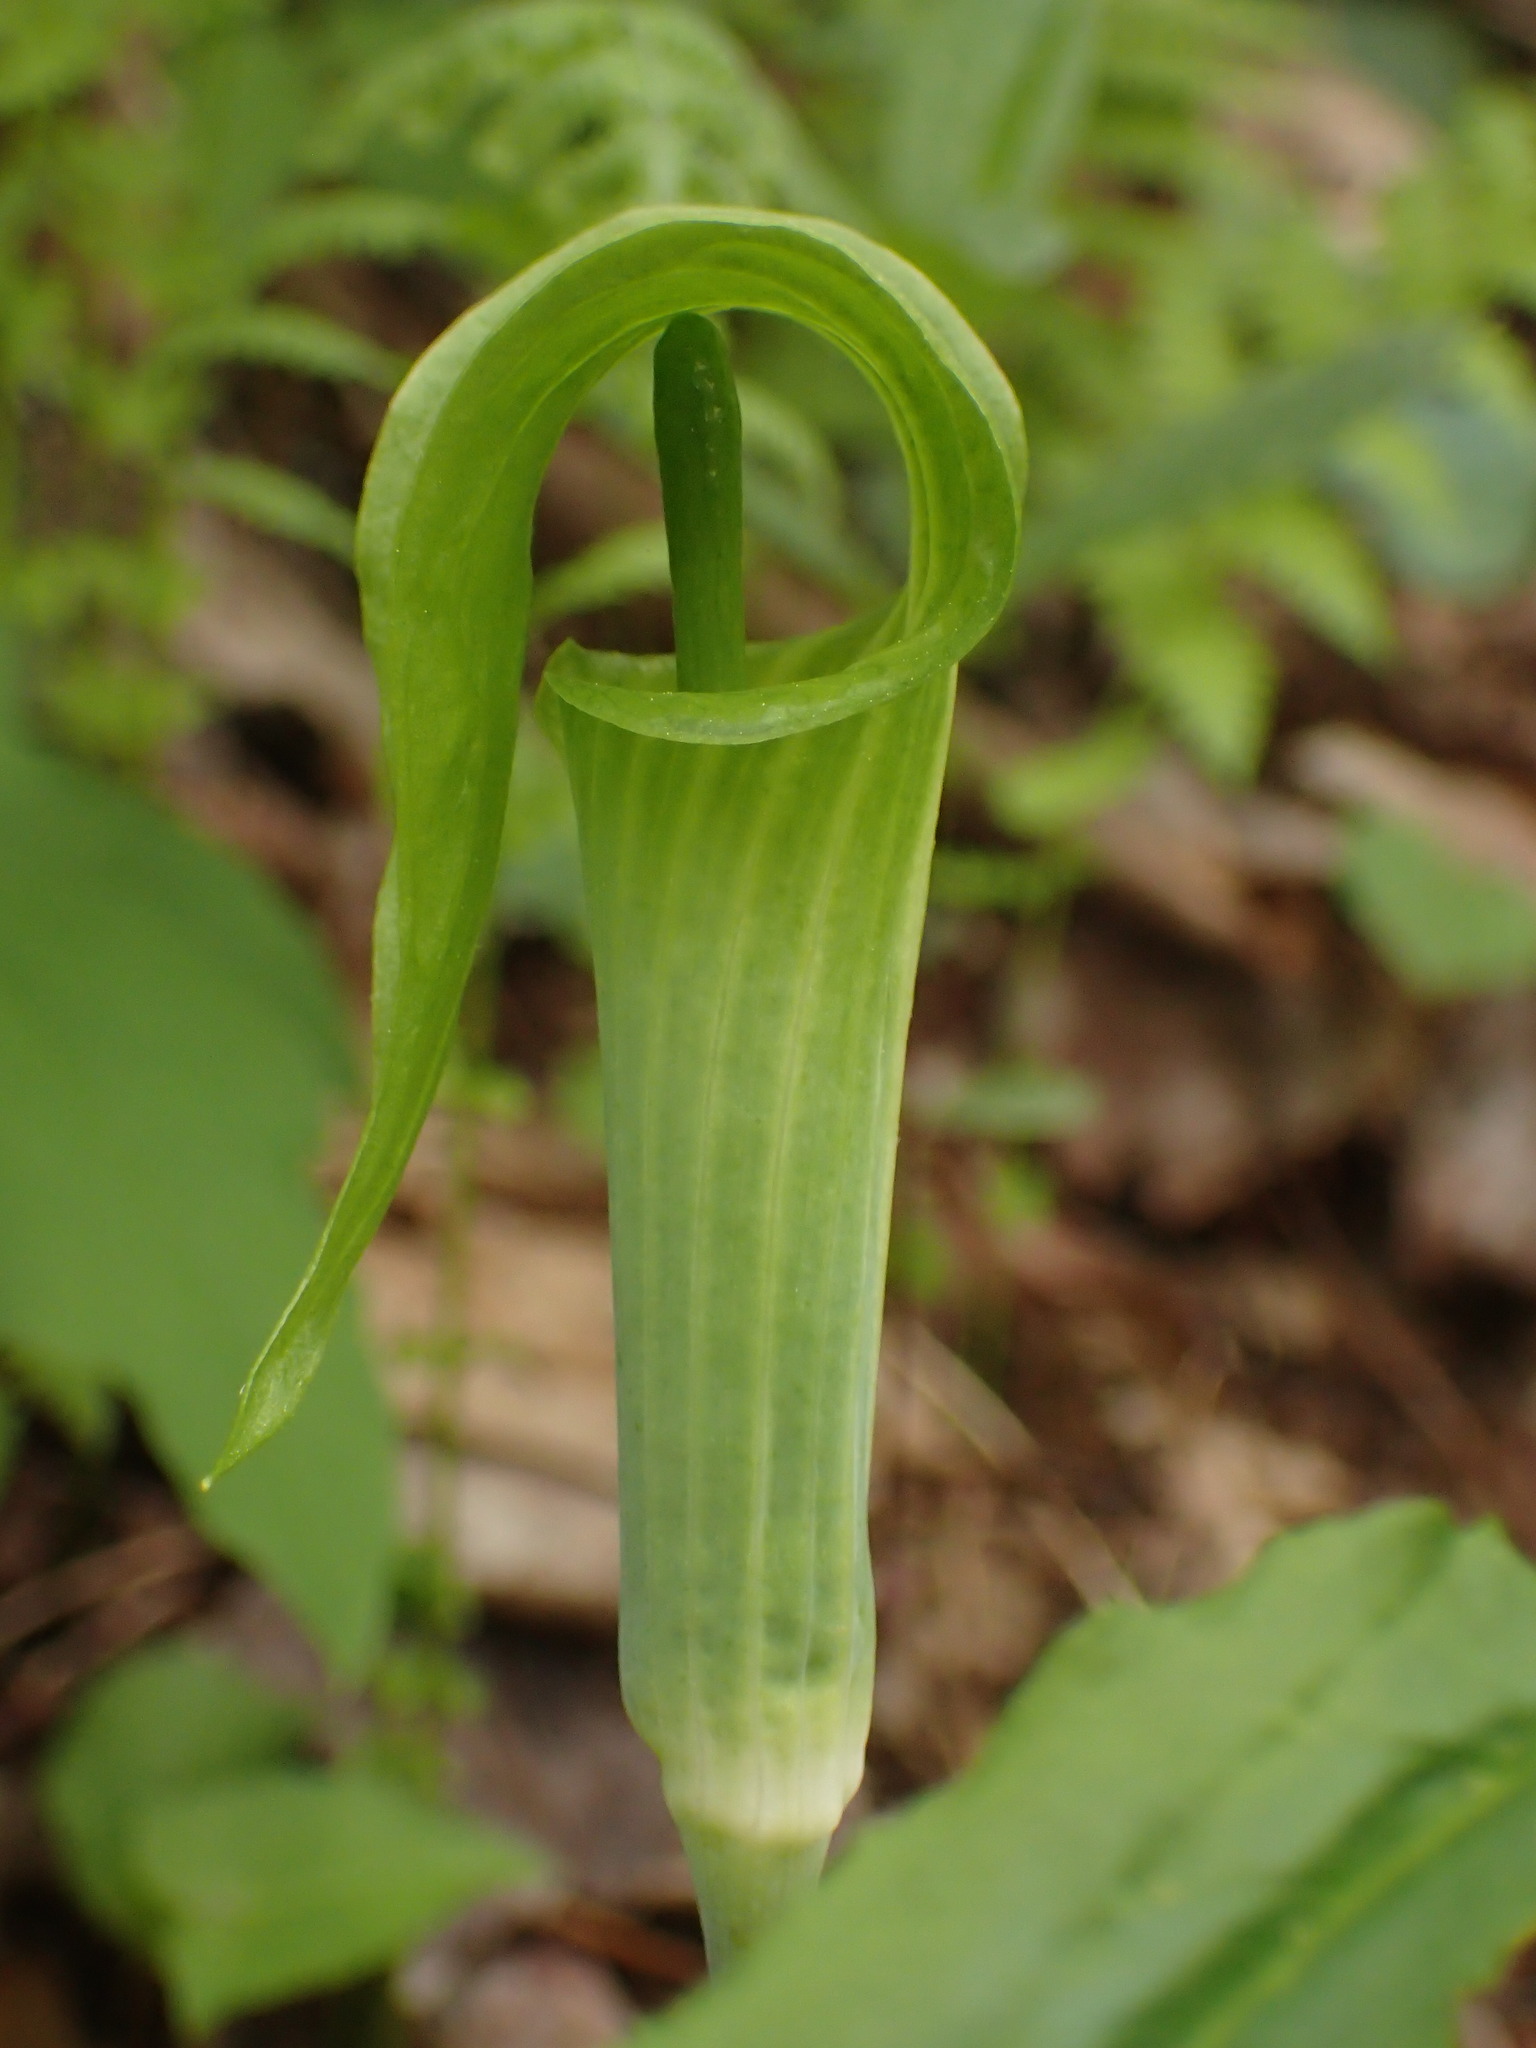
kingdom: Plantae
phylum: Tracheophyta
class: Liliopsida
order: Alismatales
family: Araceae
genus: Arisaema
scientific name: Arisaema triphyllum
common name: Jack-in-the-pulpit
